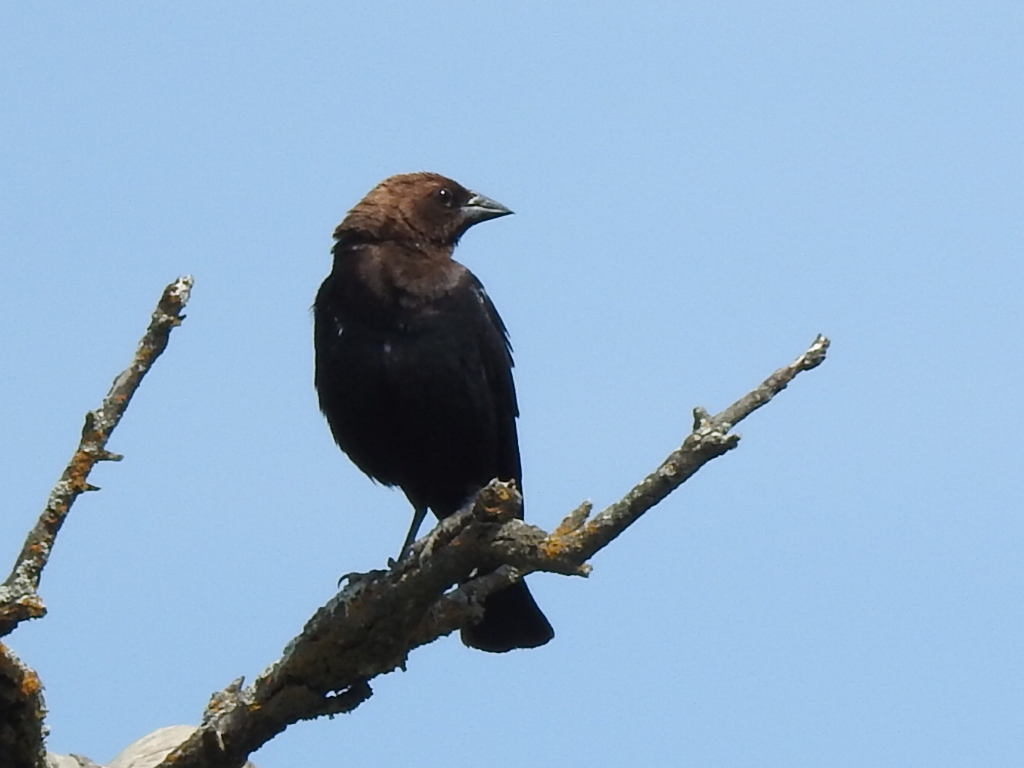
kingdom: Animalia
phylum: Chordata
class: Aves
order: Passeriformes
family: Icteridae
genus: Molothrus
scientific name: Molothrus ater
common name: Brown-headed cowbird
